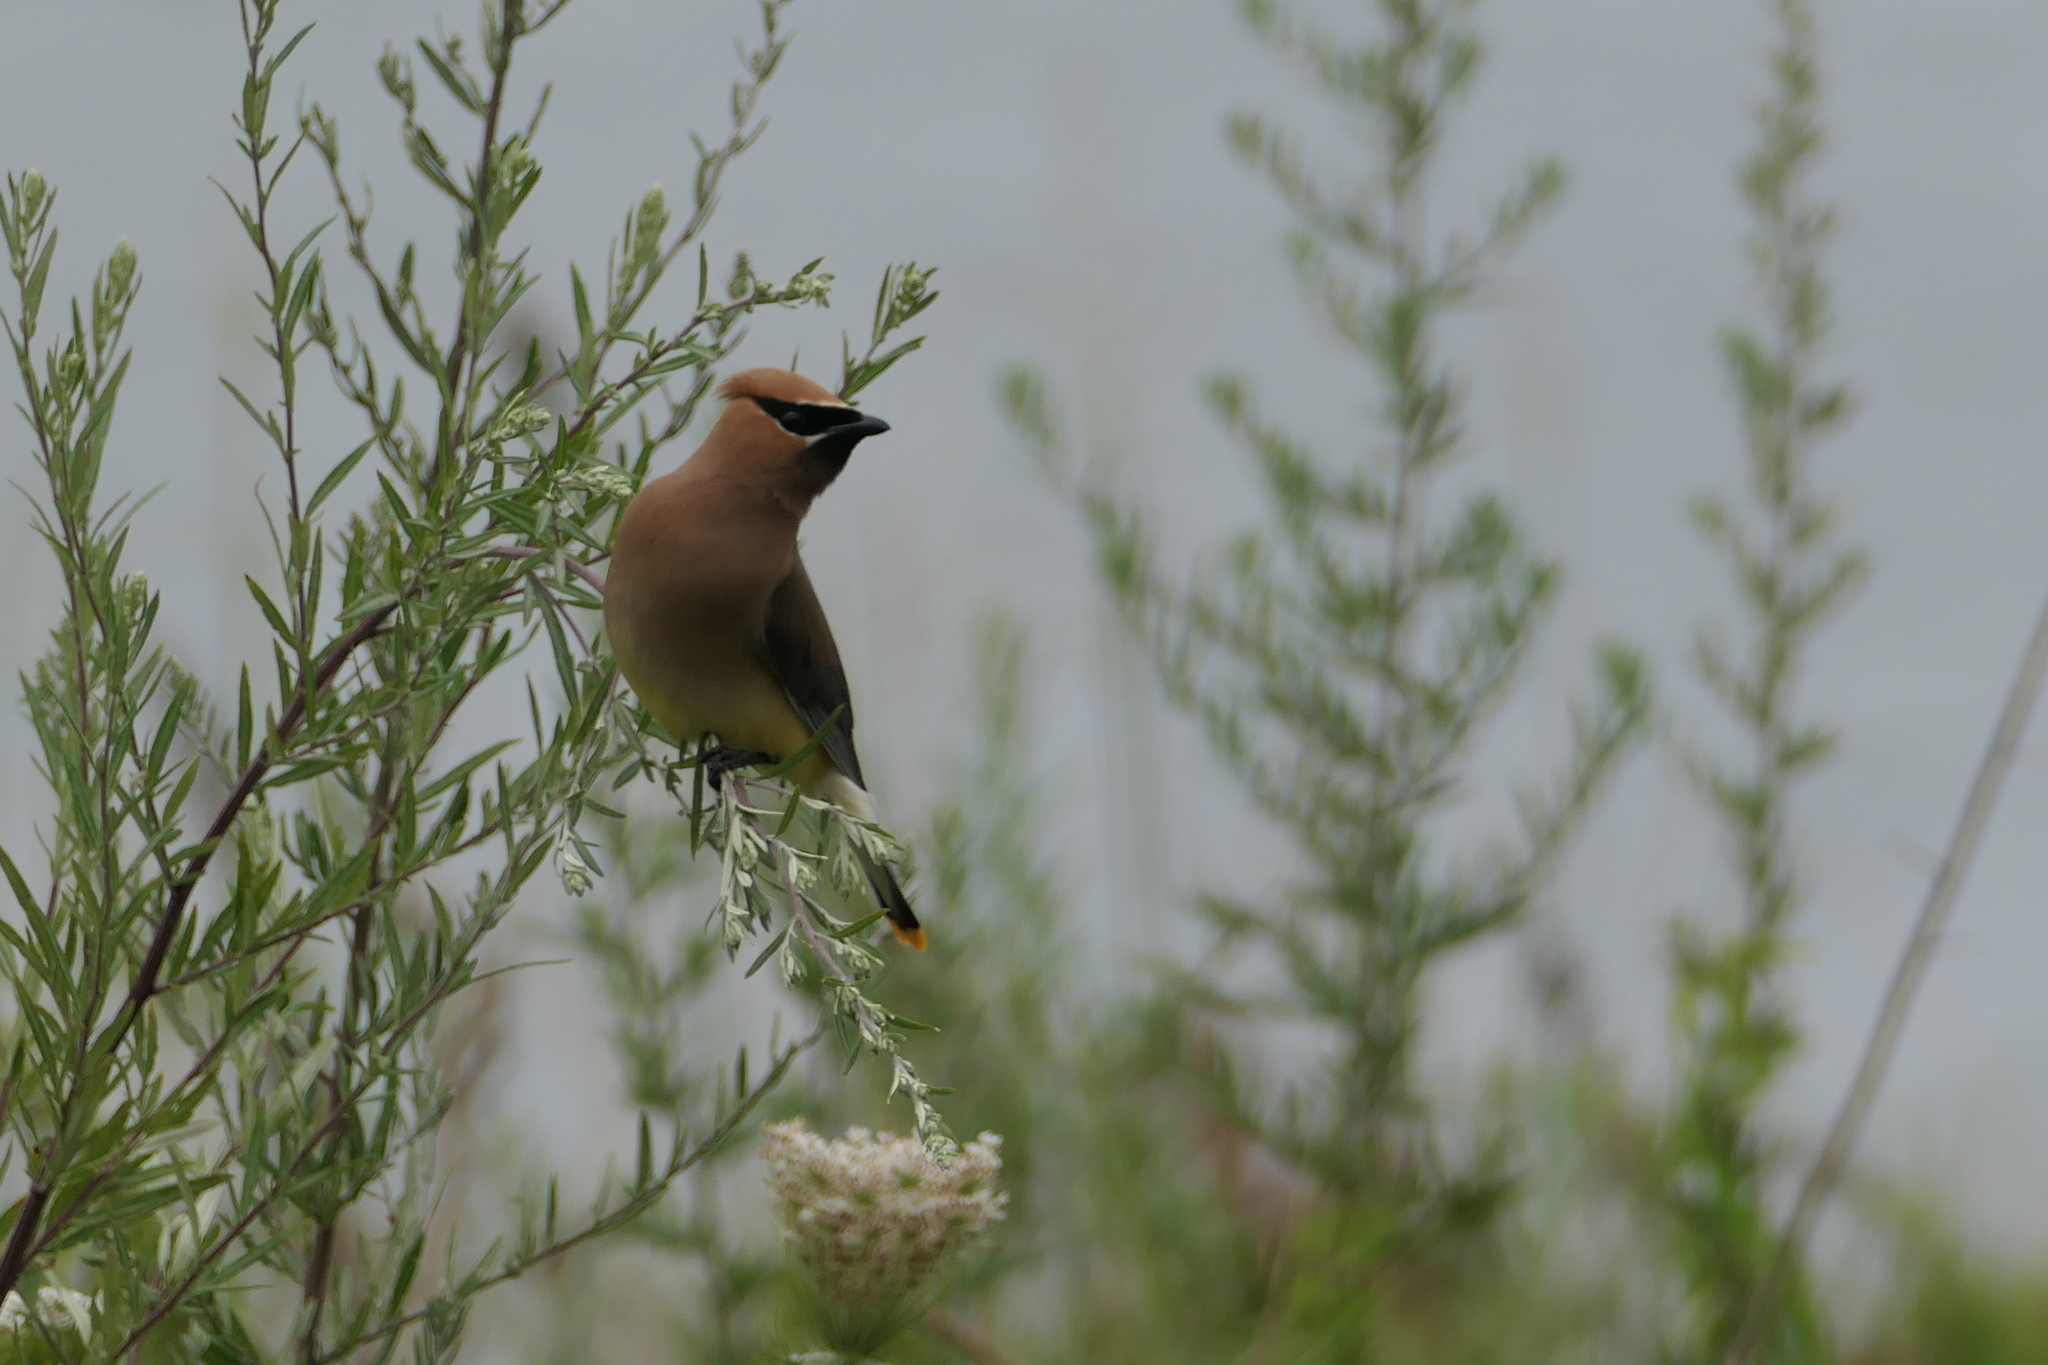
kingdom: Animalia
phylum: Chordata
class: Aves
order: Passeriformes
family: Bombycillidae
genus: Bombycilla
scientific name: Bombycilla cedrorum
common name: Cedar waxwing
